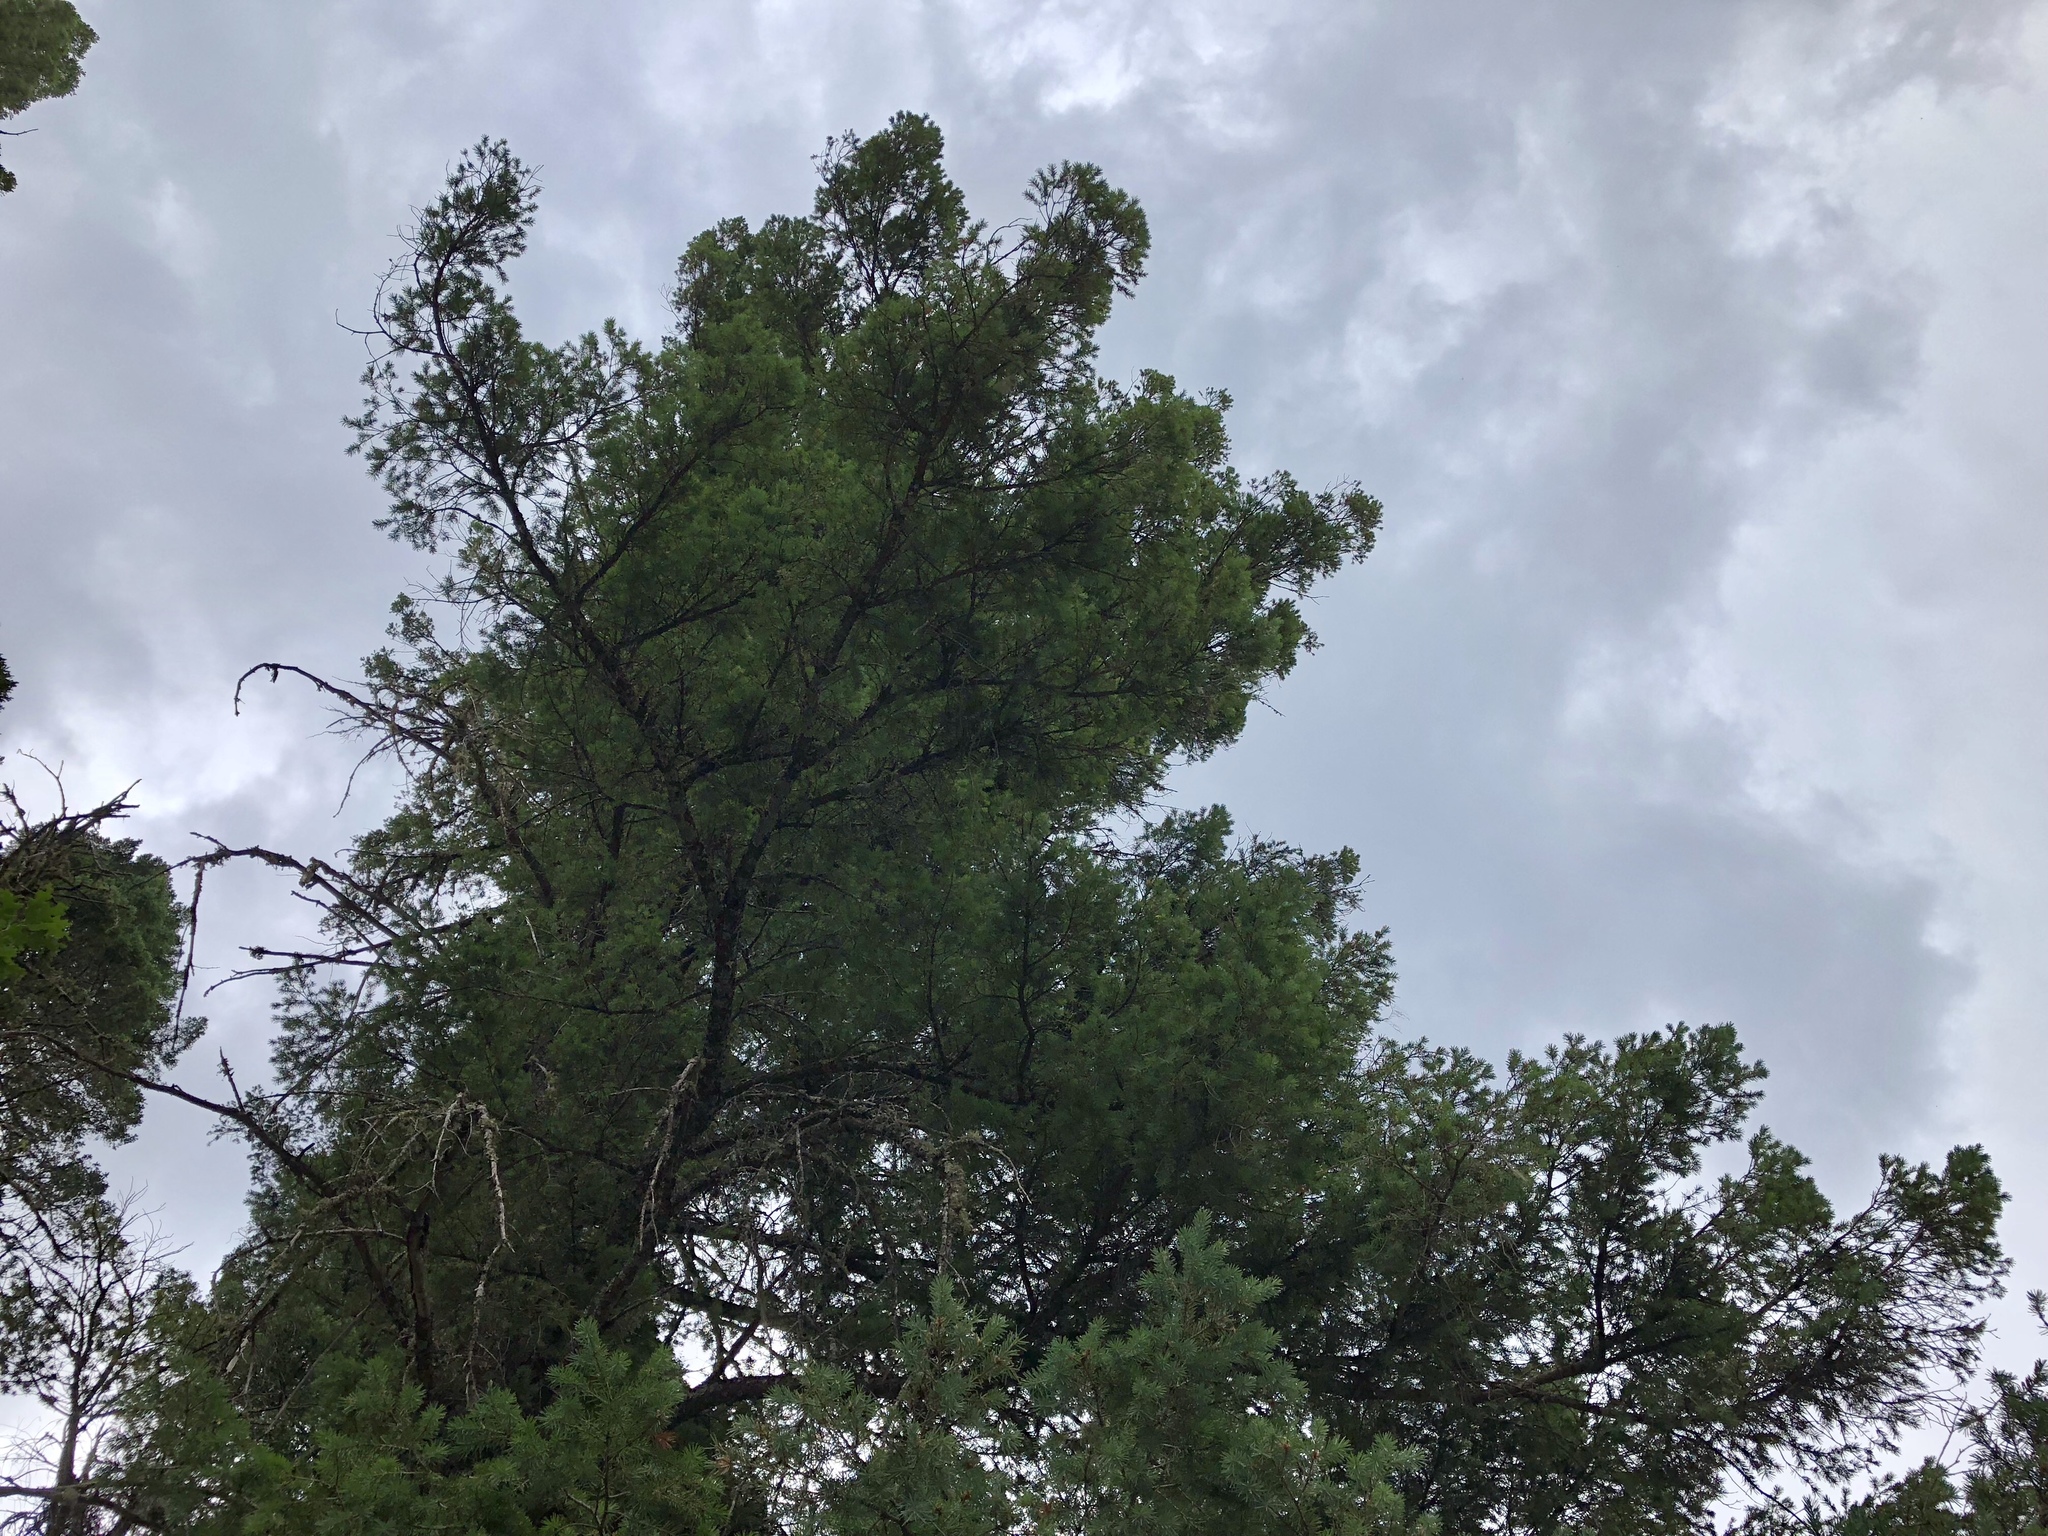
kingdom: Plantae
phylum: Tracheophyta
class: Pinopsida
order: Pinales
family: Pinaceae
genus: Pseudotsuga
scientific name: Pseudotsuga menziesii
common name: Douglas fir
